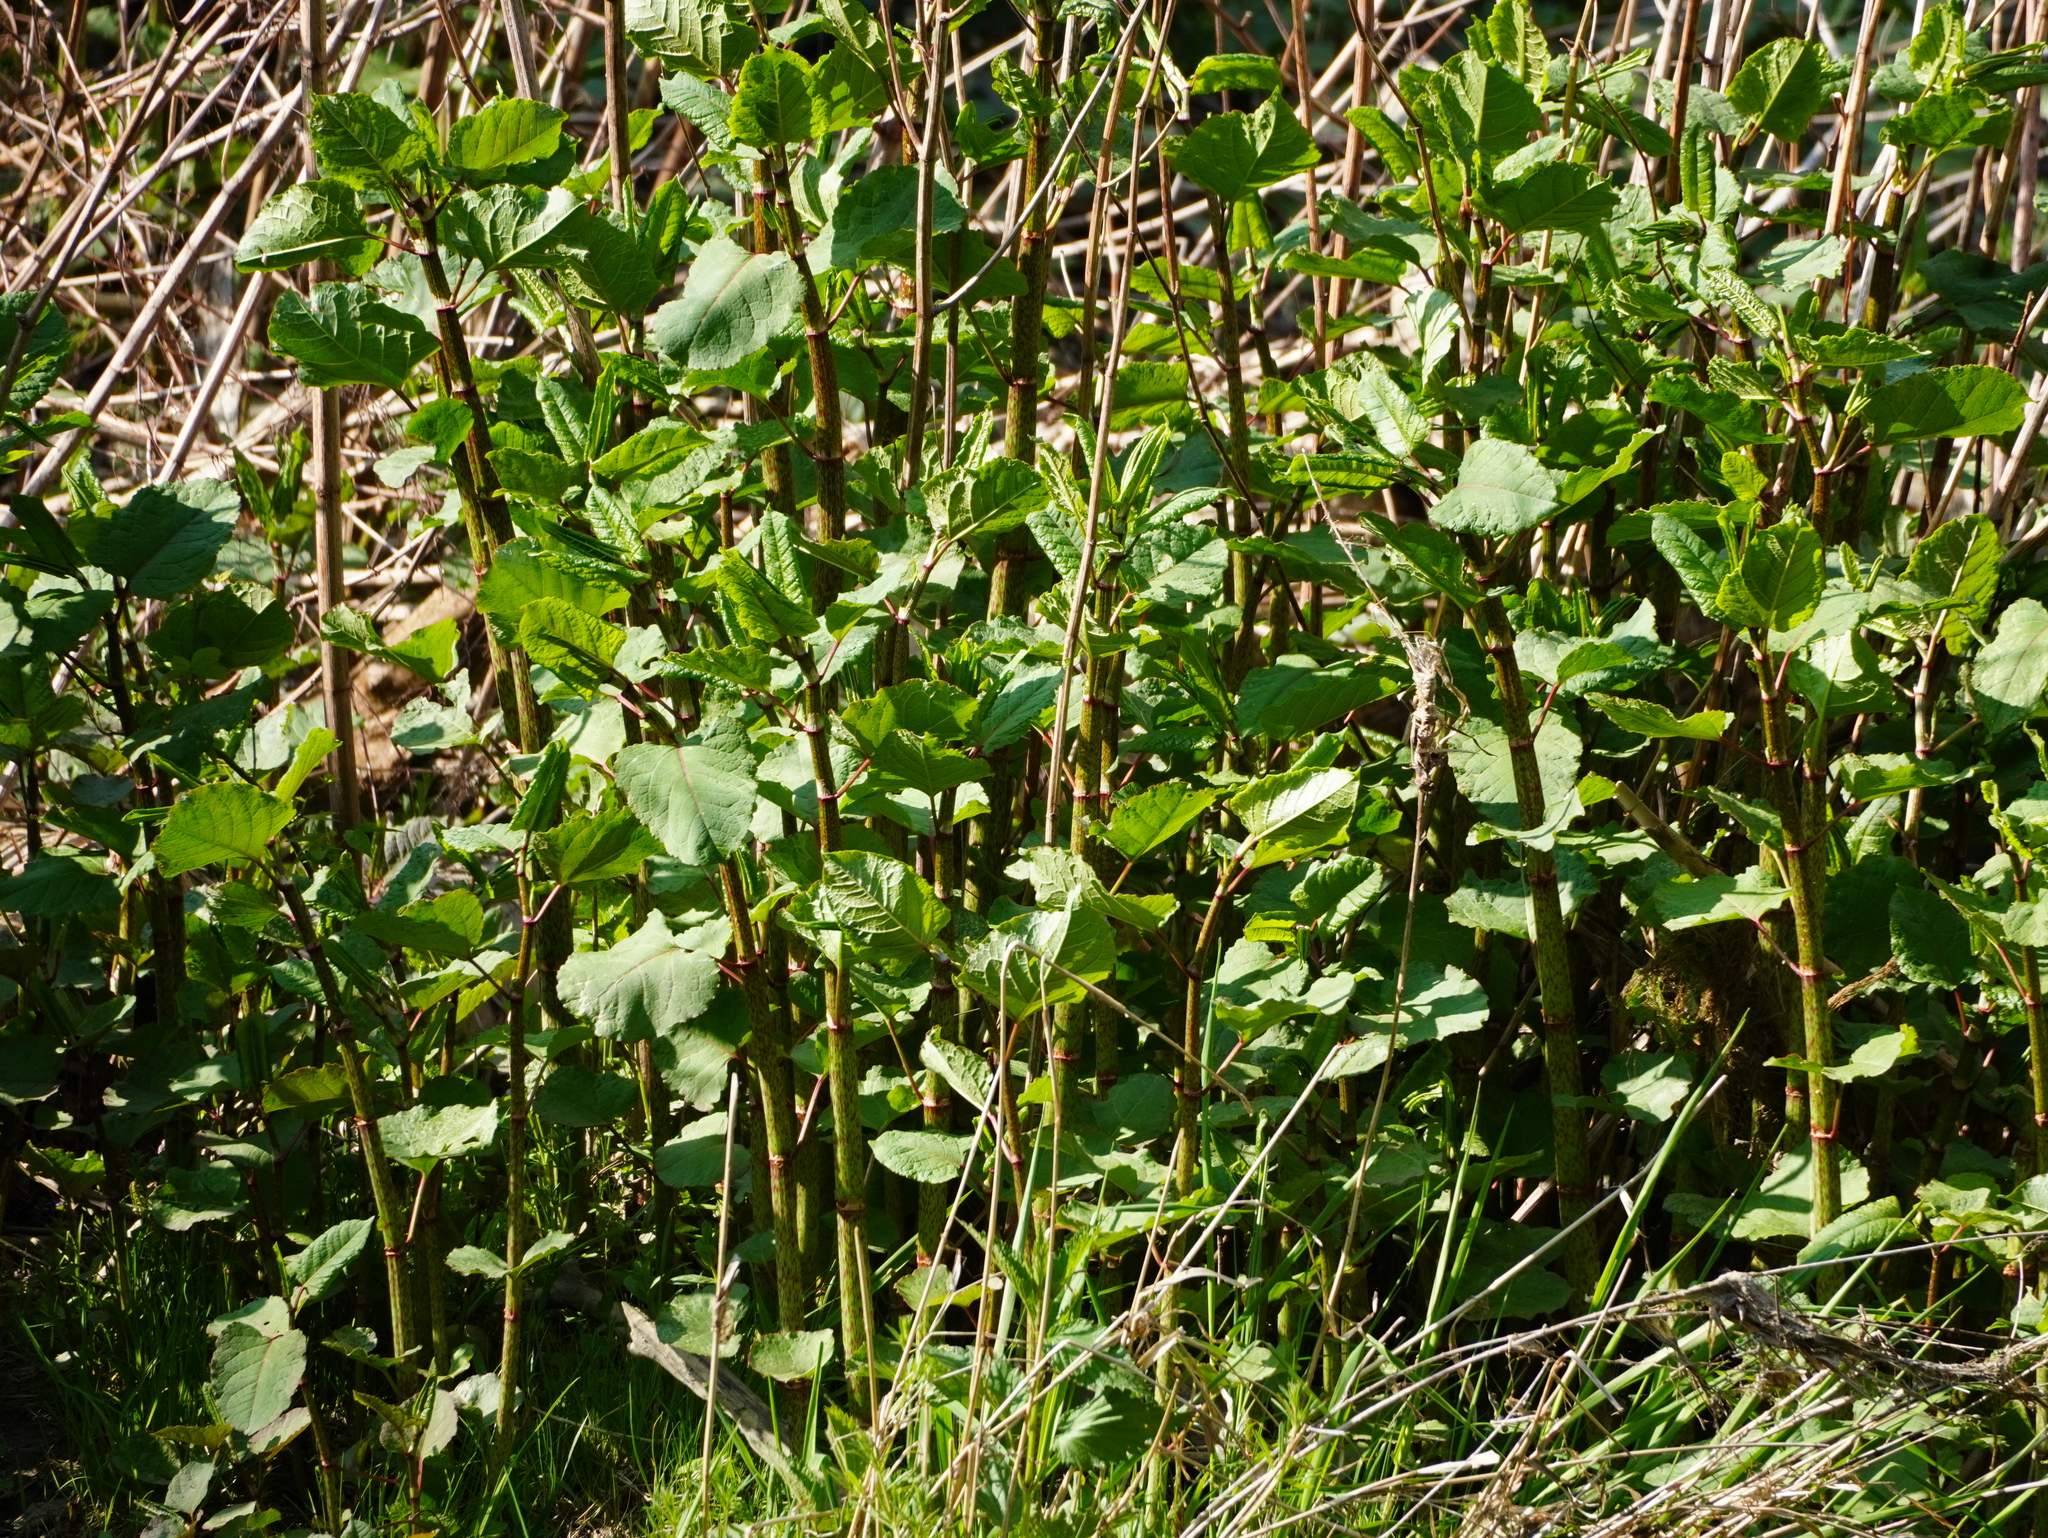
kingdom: Plantae
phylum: Tracheophyta
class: Magnoliopsida
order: Caryophyllales
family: Polygonaceae
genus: Reynoutria
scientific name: Reynoutria bohemica
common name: Bohemian knotweed
